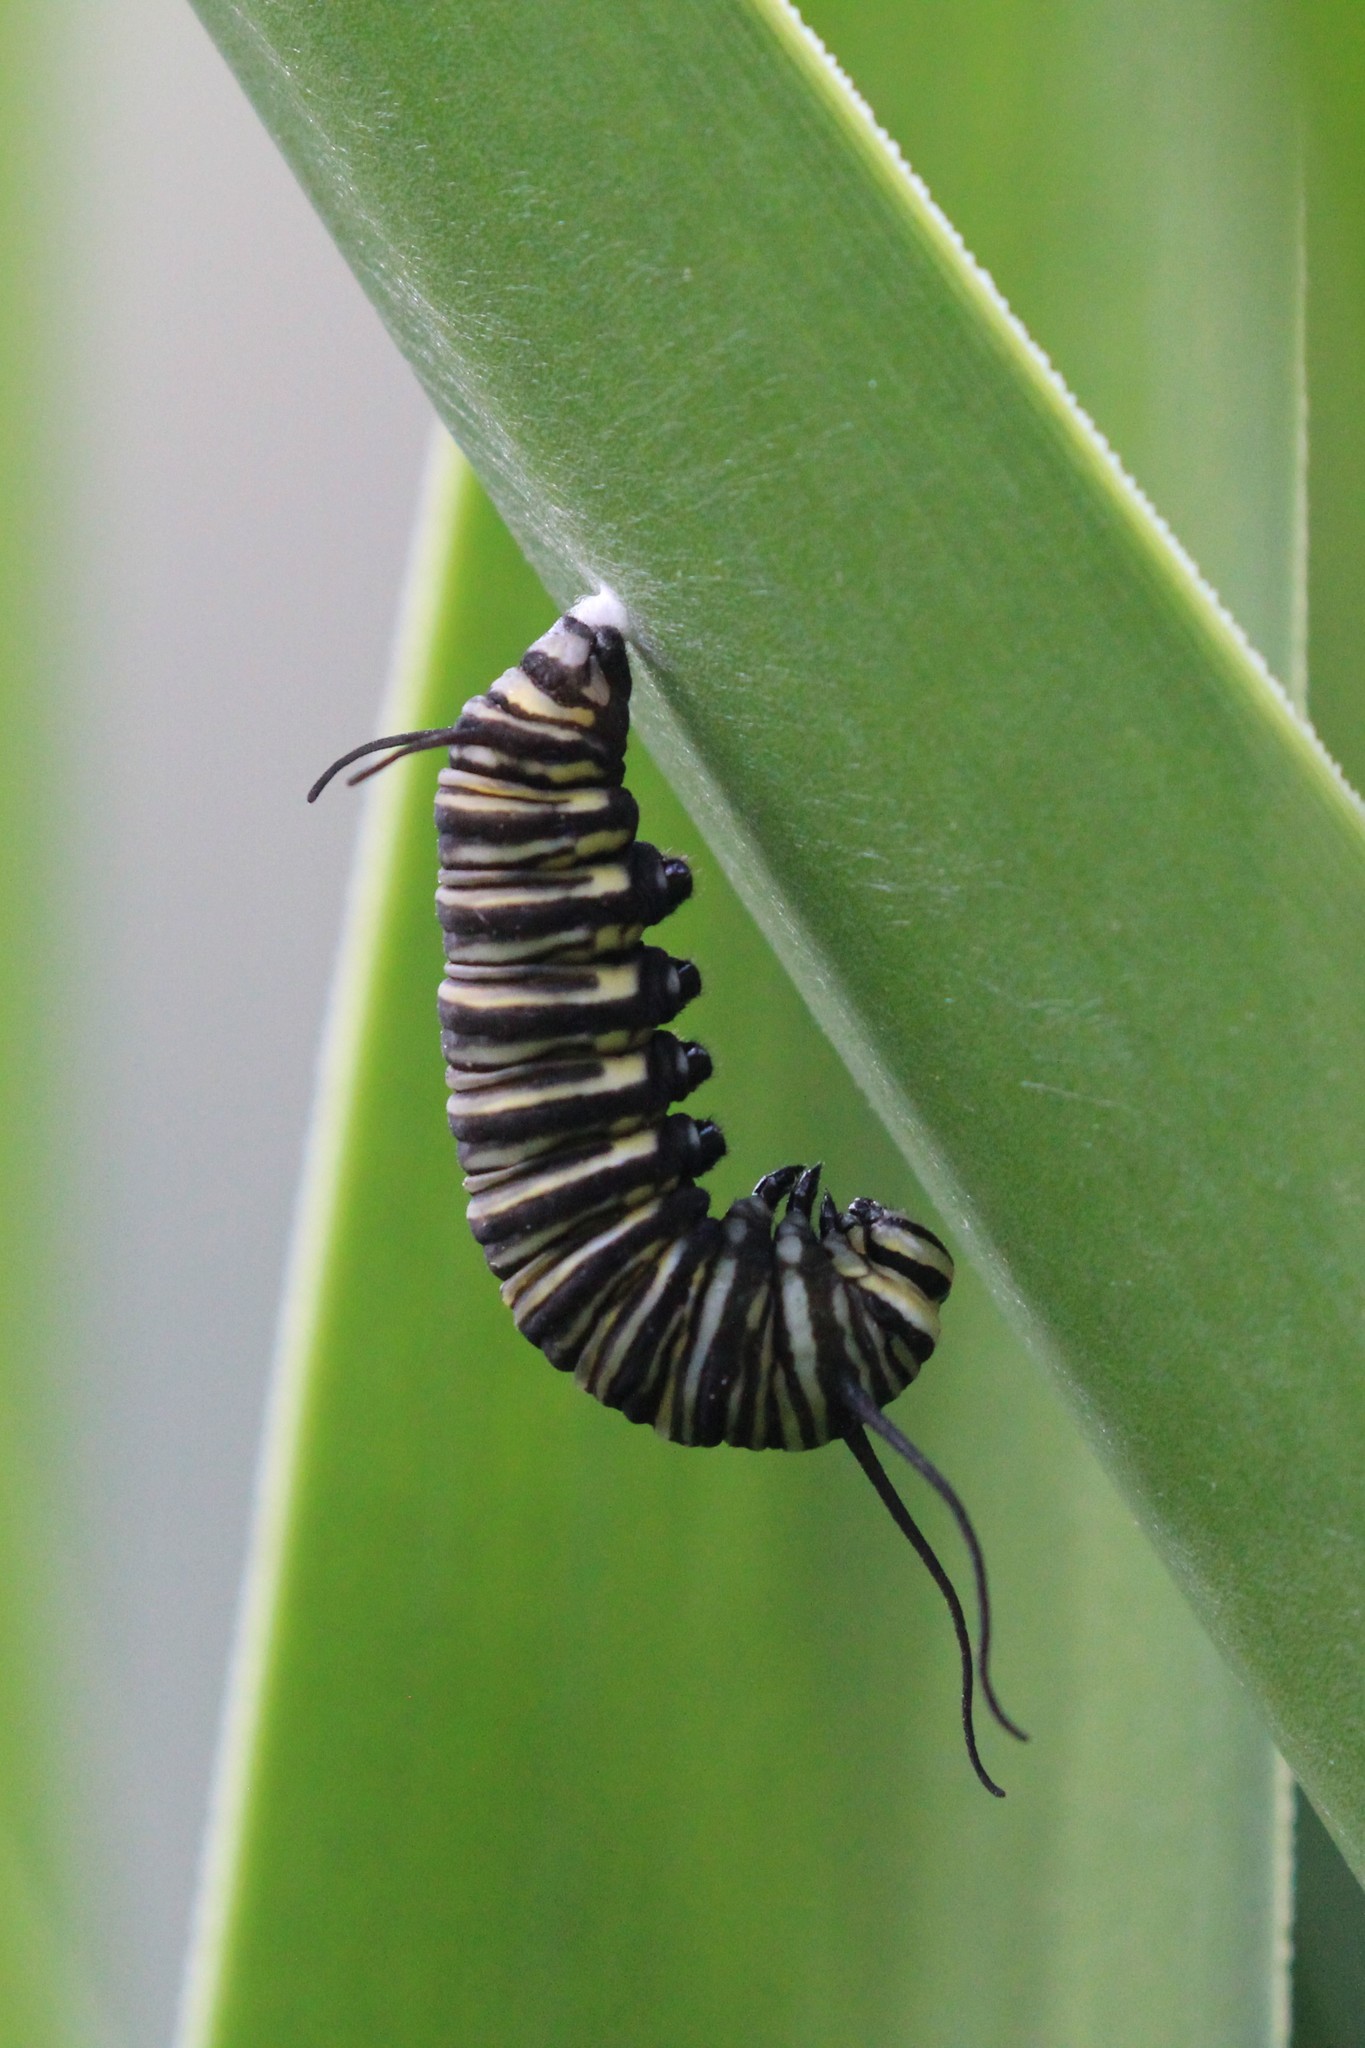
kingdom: Animalia
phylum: Arthropoda
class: Insecta
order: Lepidoptera
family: Nymphalidae
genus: Danaus
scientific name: Danaus plexippus
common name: Monarch
